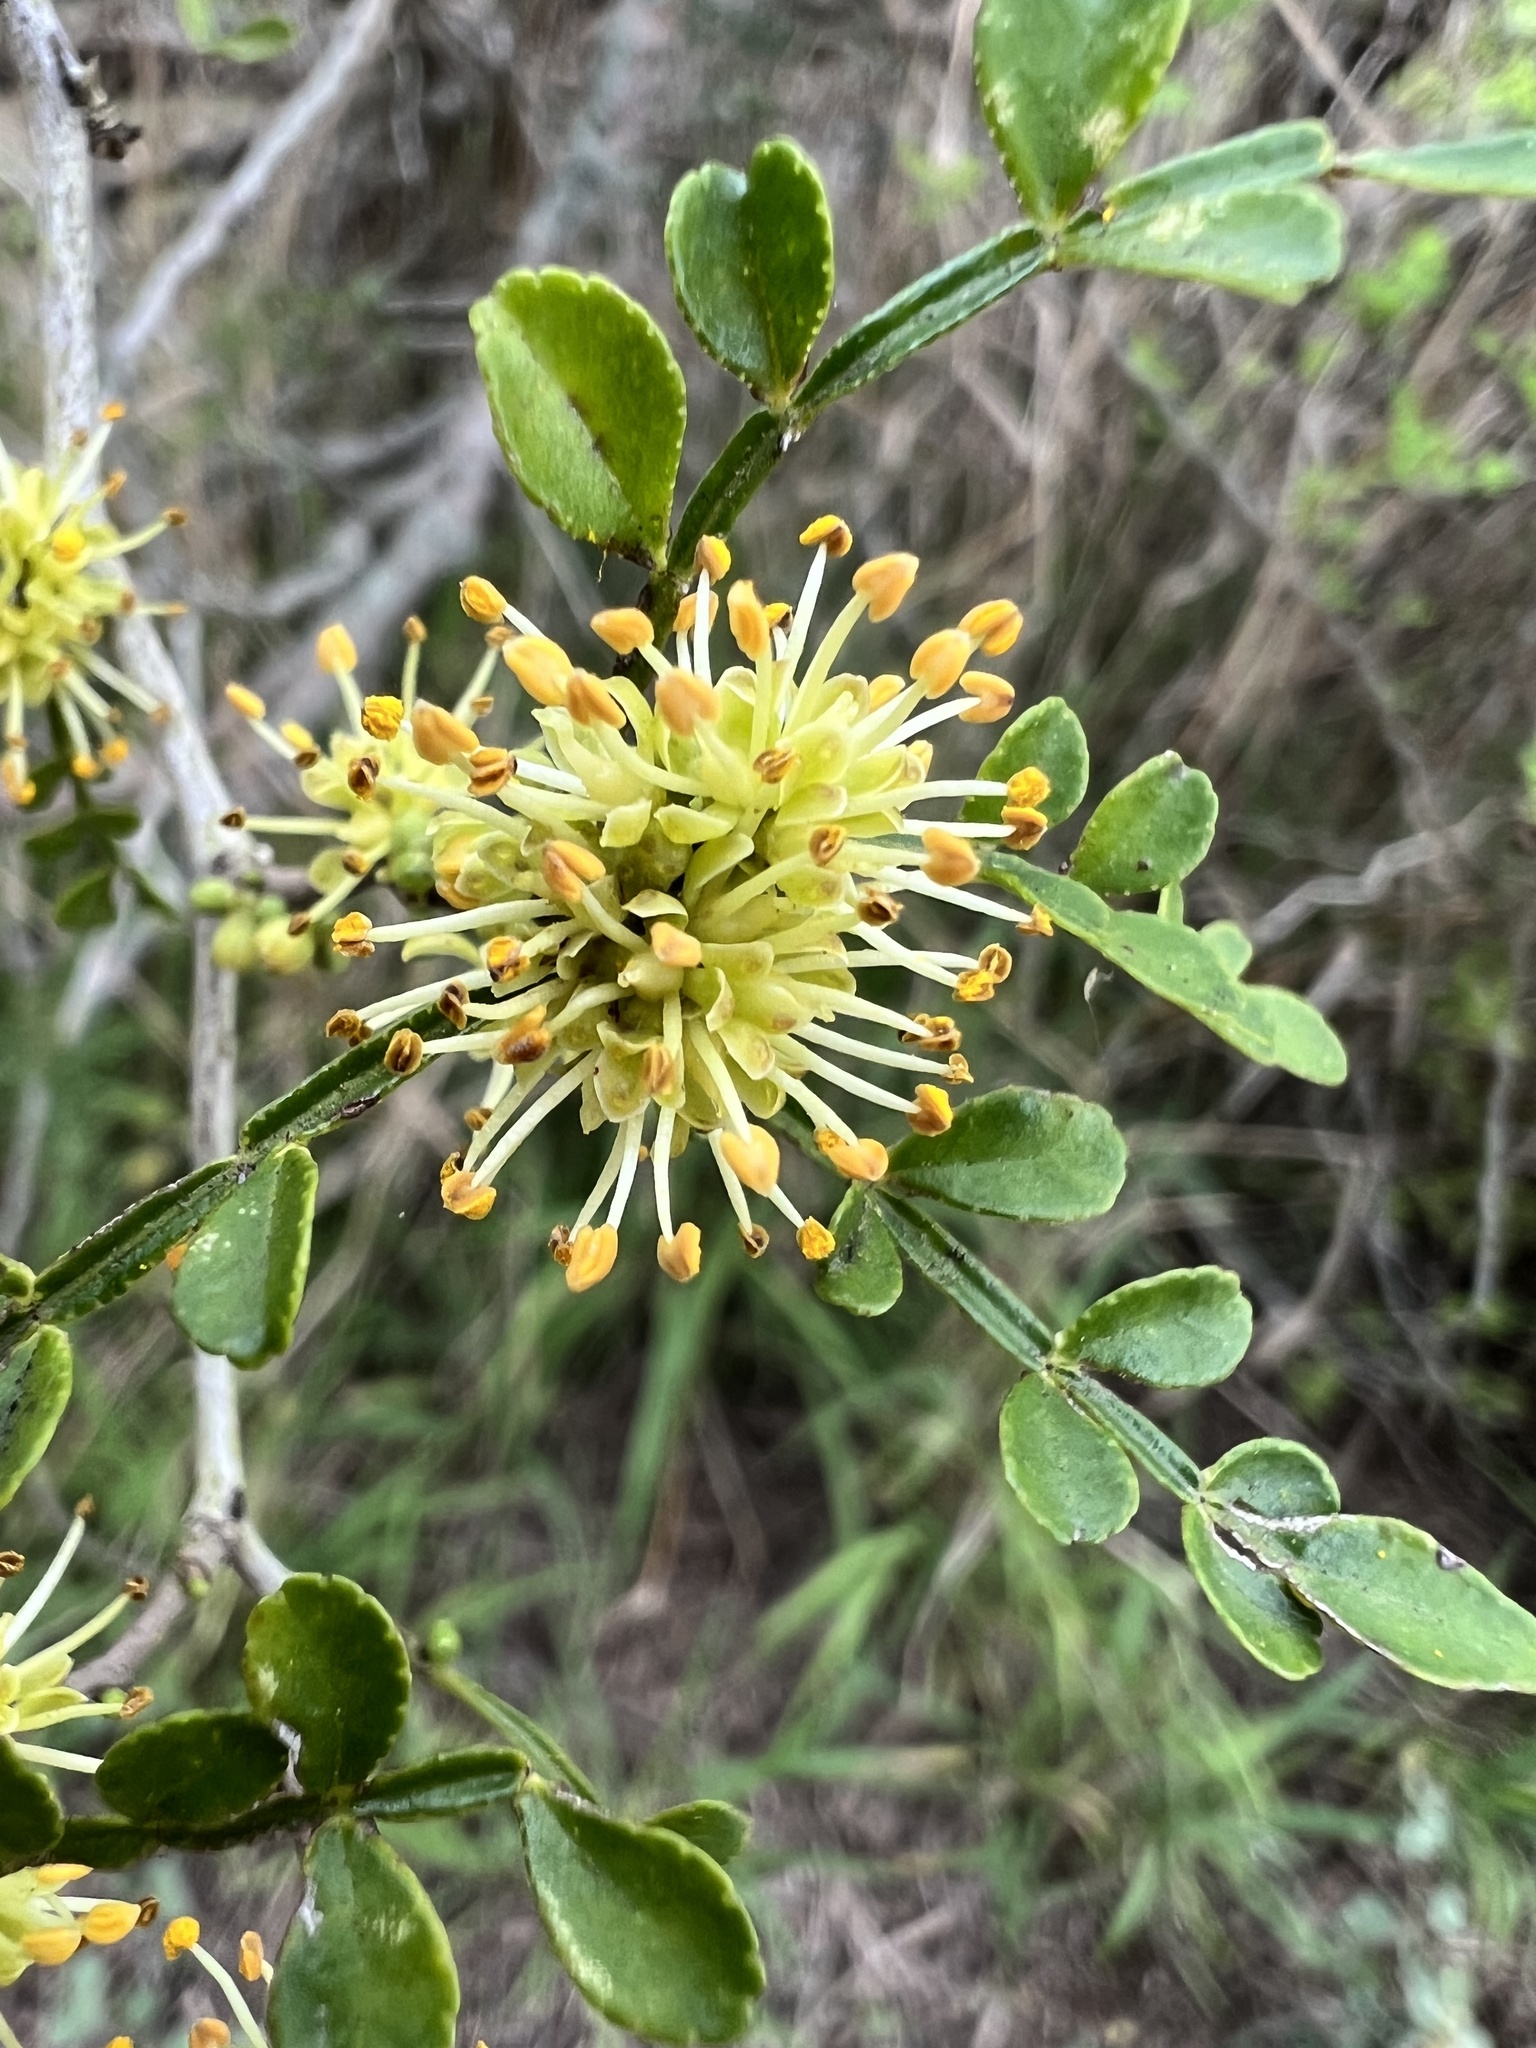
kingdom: Plantae
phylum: Tracheophyta
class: Magnoliopsida
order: Sapindales
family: Rutaceae
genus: Zanthoxylum
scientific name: Zanthoxylum fagara
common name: Lime prickly-ash
